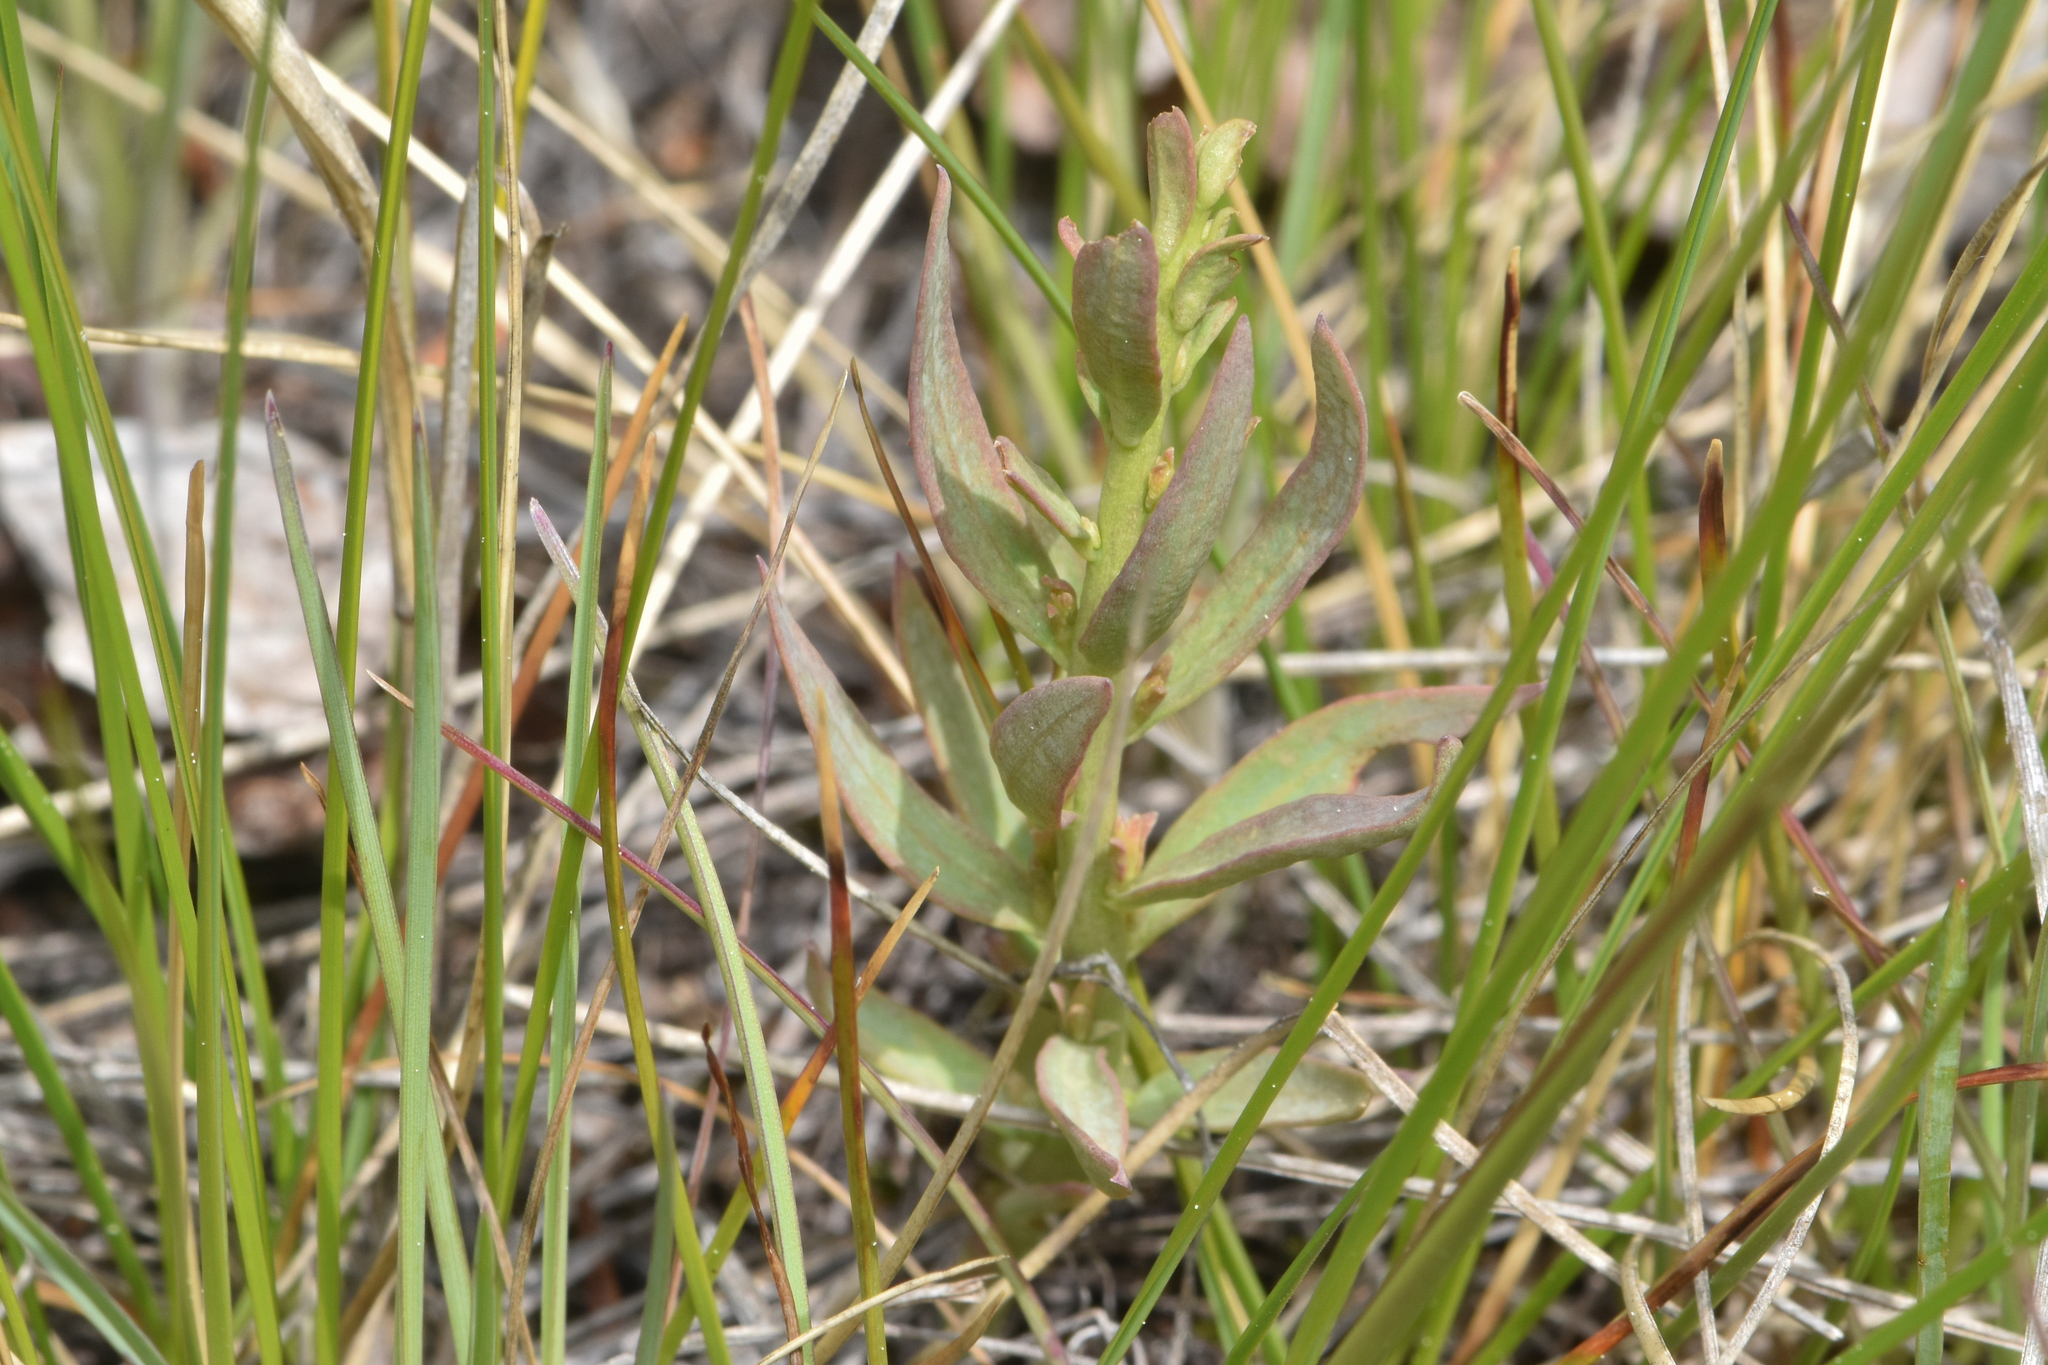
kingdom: Plantae
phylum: Tracheophyta
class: Magnoliopsida
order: Santalales
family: Comandraceae
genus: Comandra
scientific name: Comandra umbellata
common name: Bastard toadflax
